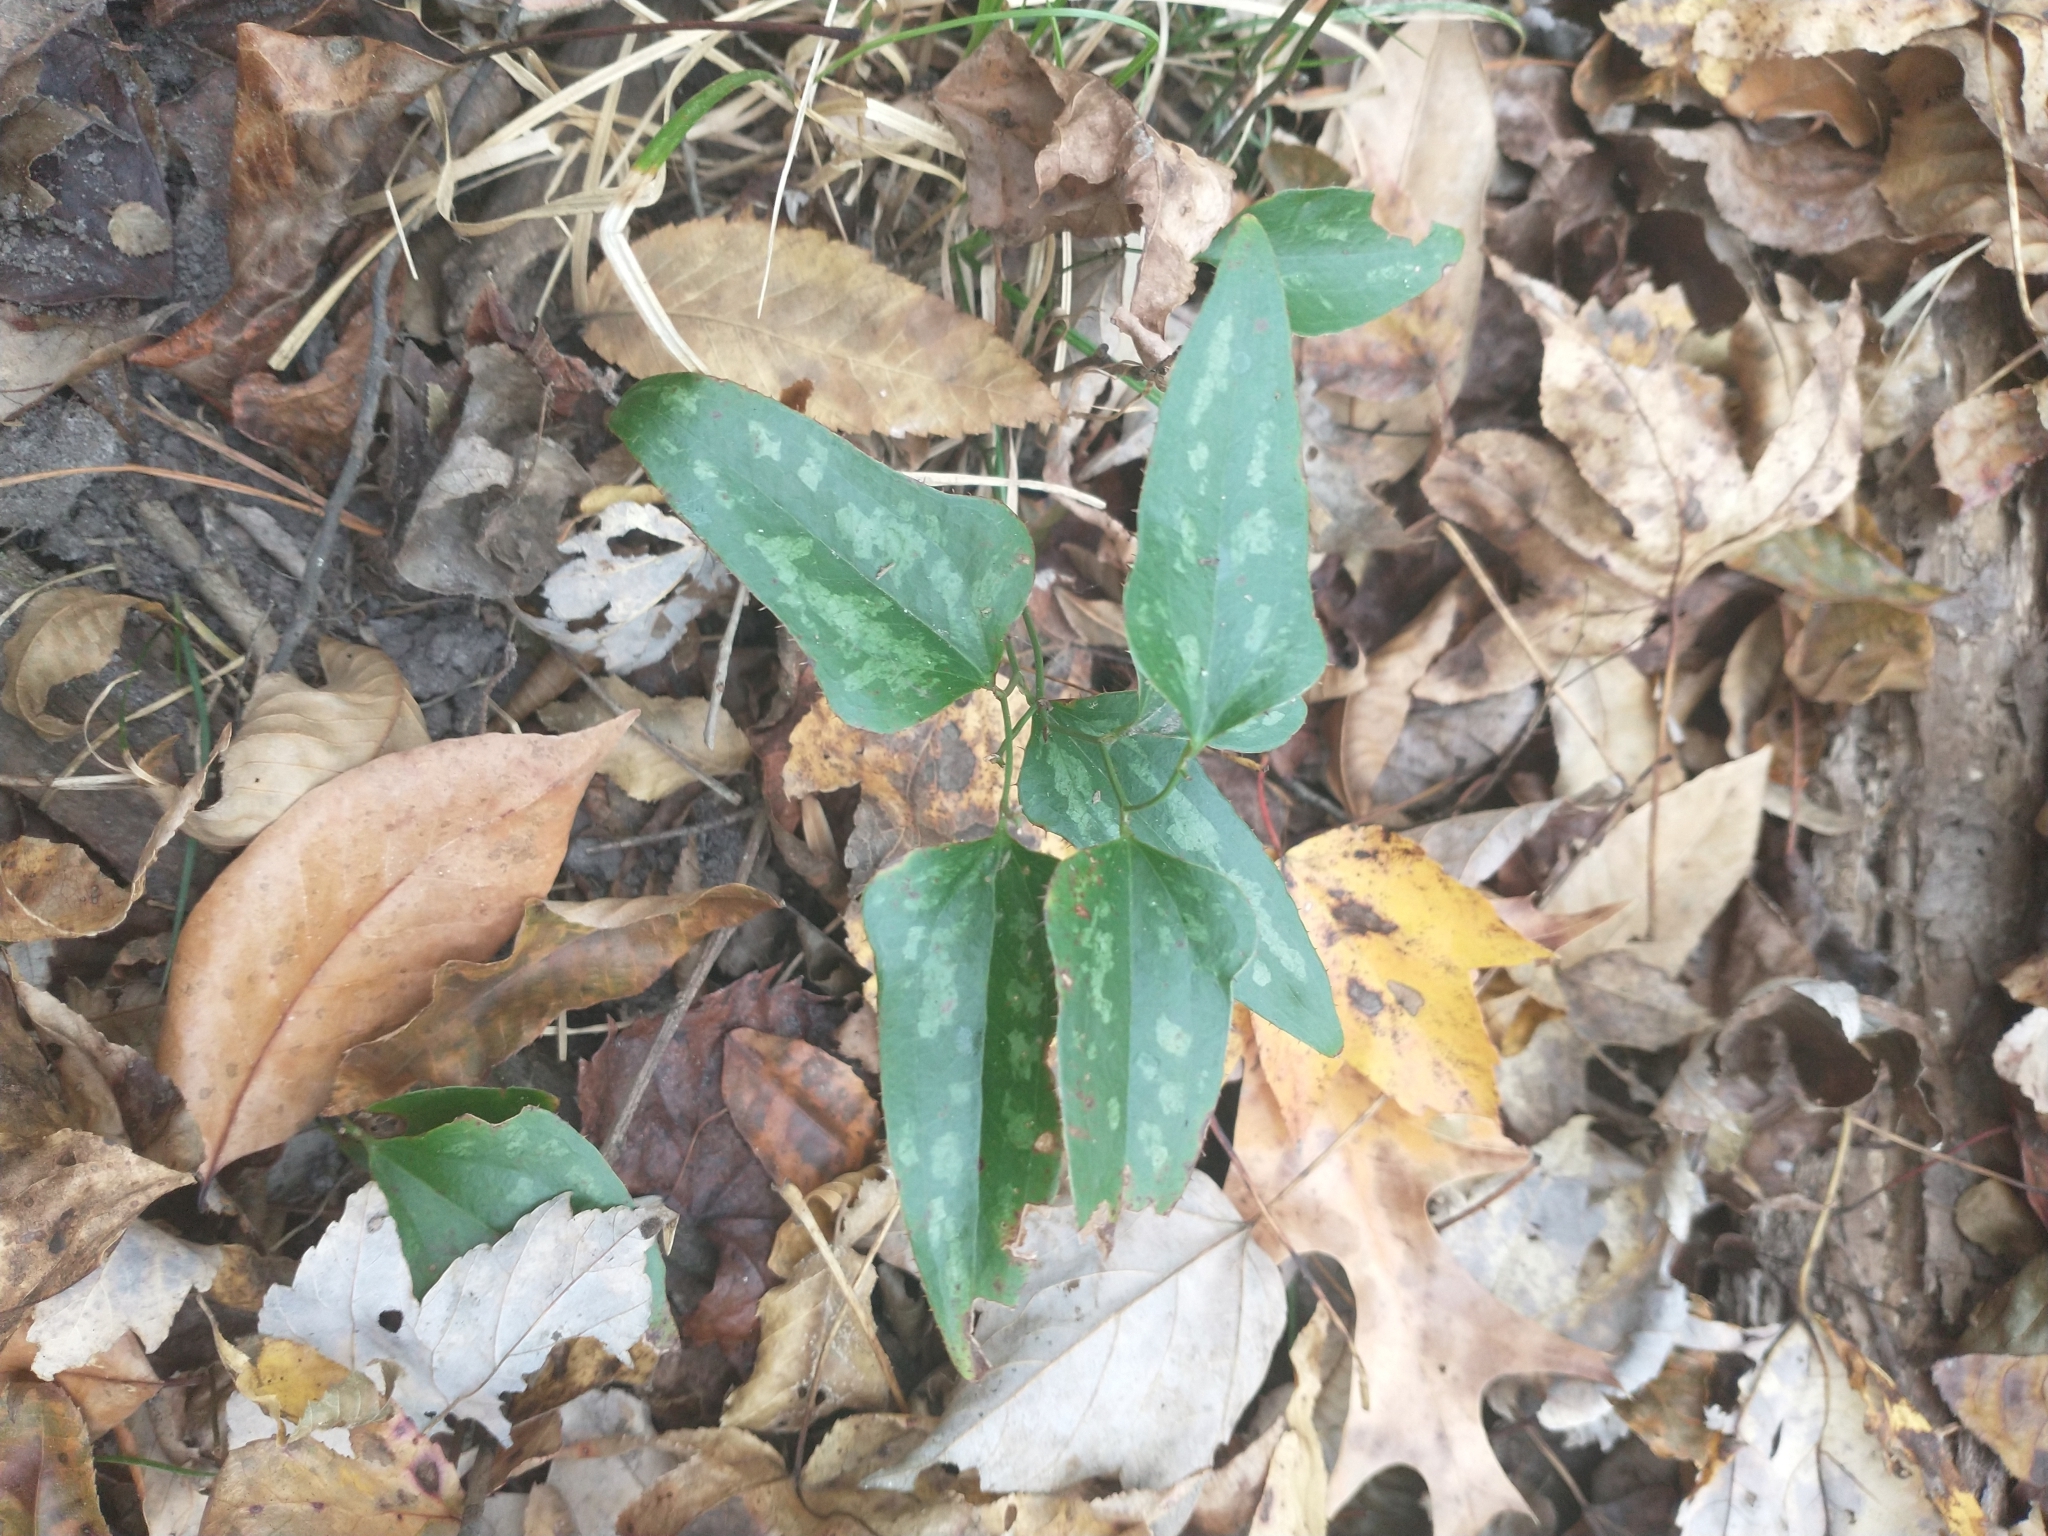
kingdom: Plantae
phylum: Tracheophyta
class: Liliopsida
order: Liliales
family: Smilacaceae
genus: Smilax
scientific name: Smilax bona-nox
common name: Catbrier
